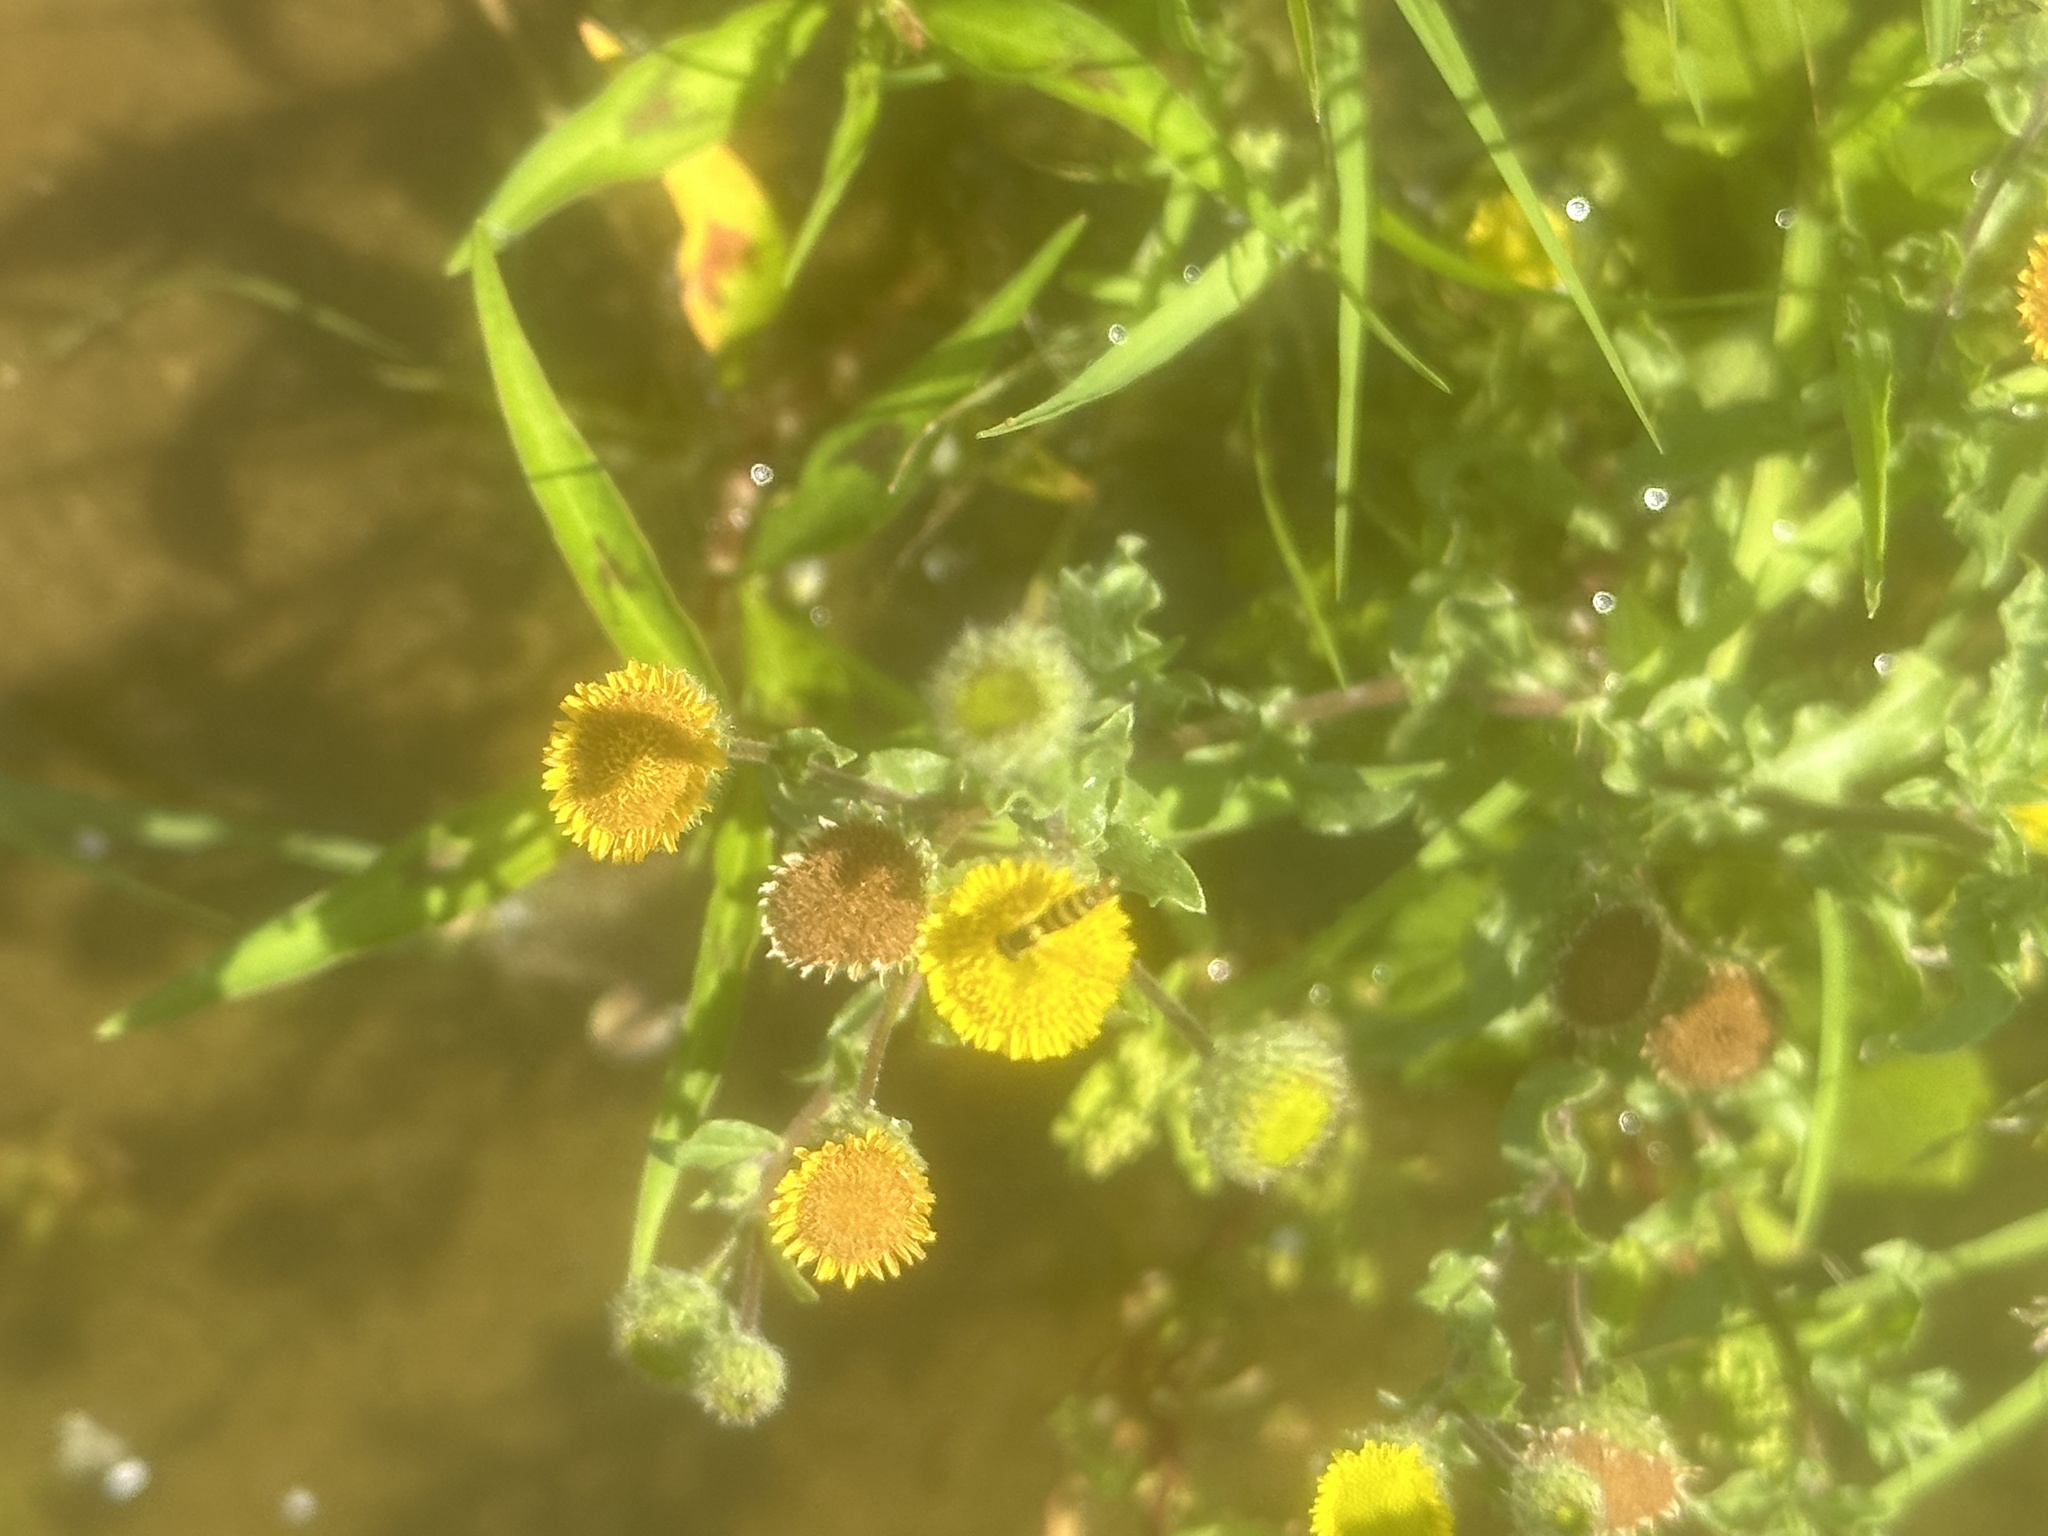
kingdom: Plantae
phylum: Tracheophyta
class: Magnoliopsida
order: Asterales
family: Asteraceae
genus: Pulicaria
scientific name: Pulicaria vulgaris
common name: Small fleabane
